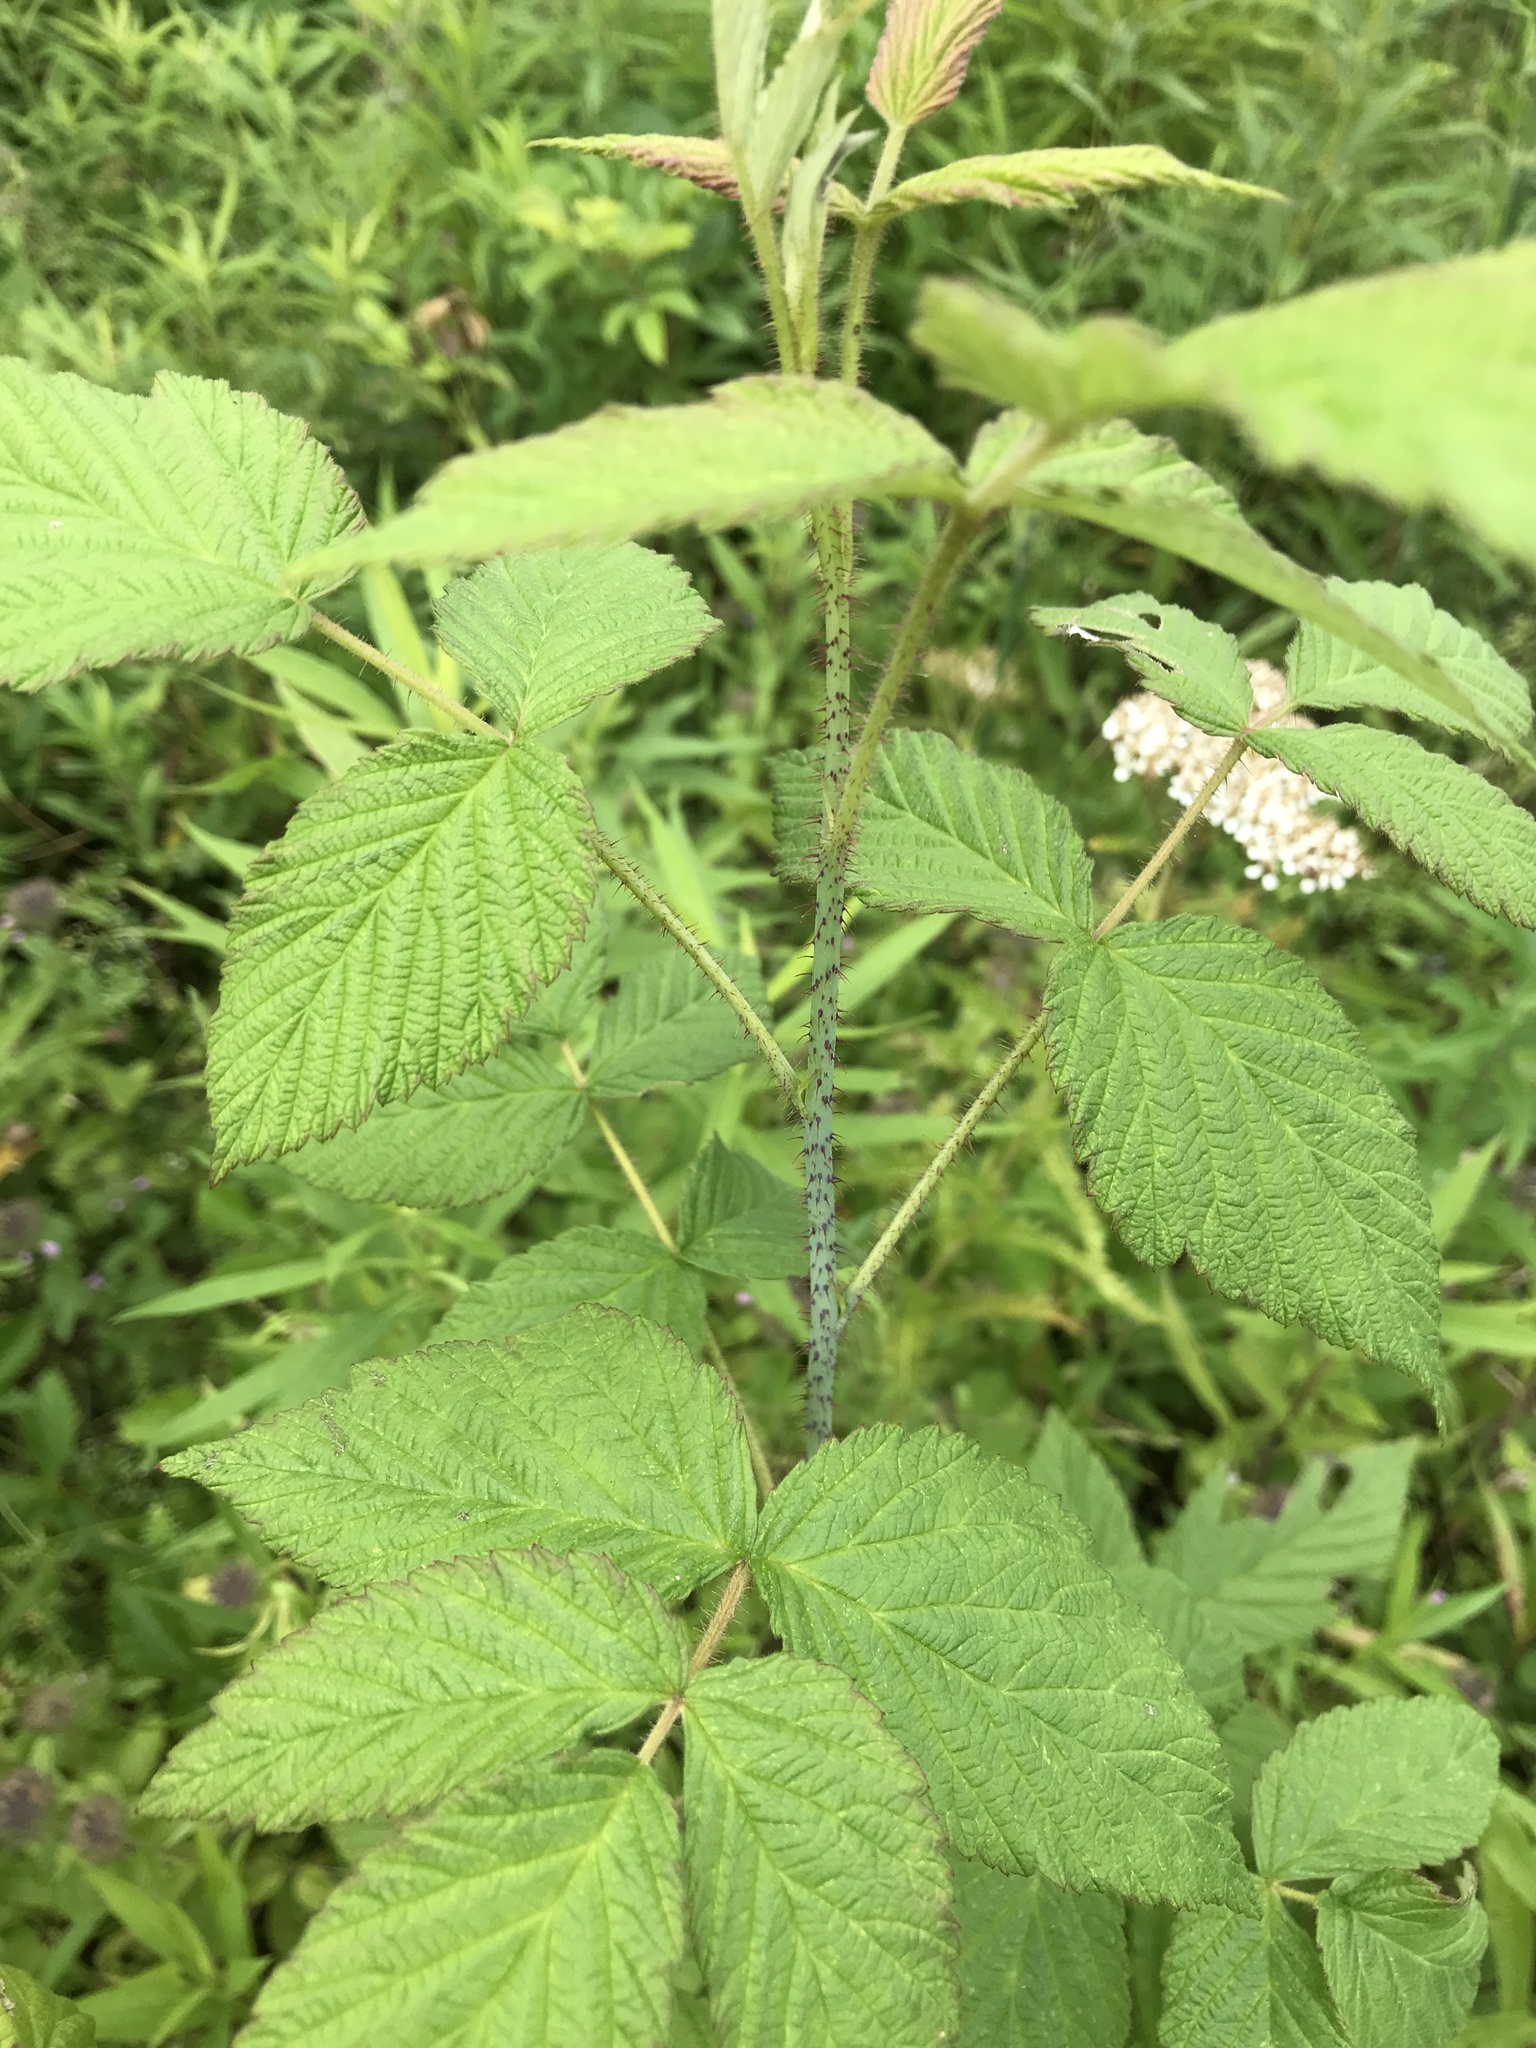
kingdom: Plantae
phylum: Tracheophyta
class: Magnoliopsida
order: Rosales
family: Rosaceae
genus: Rubus
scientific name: Rubus idaeus
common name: Raspberry
